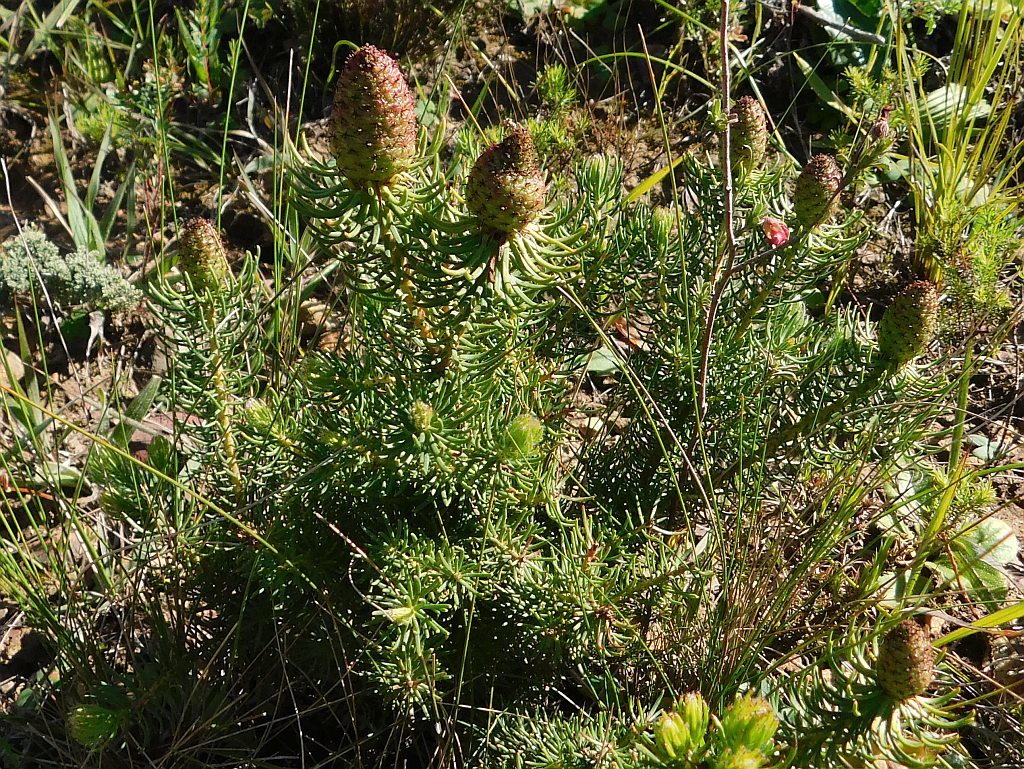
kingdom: Plantae
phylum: Tracheophyta
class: Magnoliopsida
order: Proteales
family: Proteaceae
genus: Leucadendron
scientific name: Leucadendron teretifolium
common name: Needle-leaf conebush
